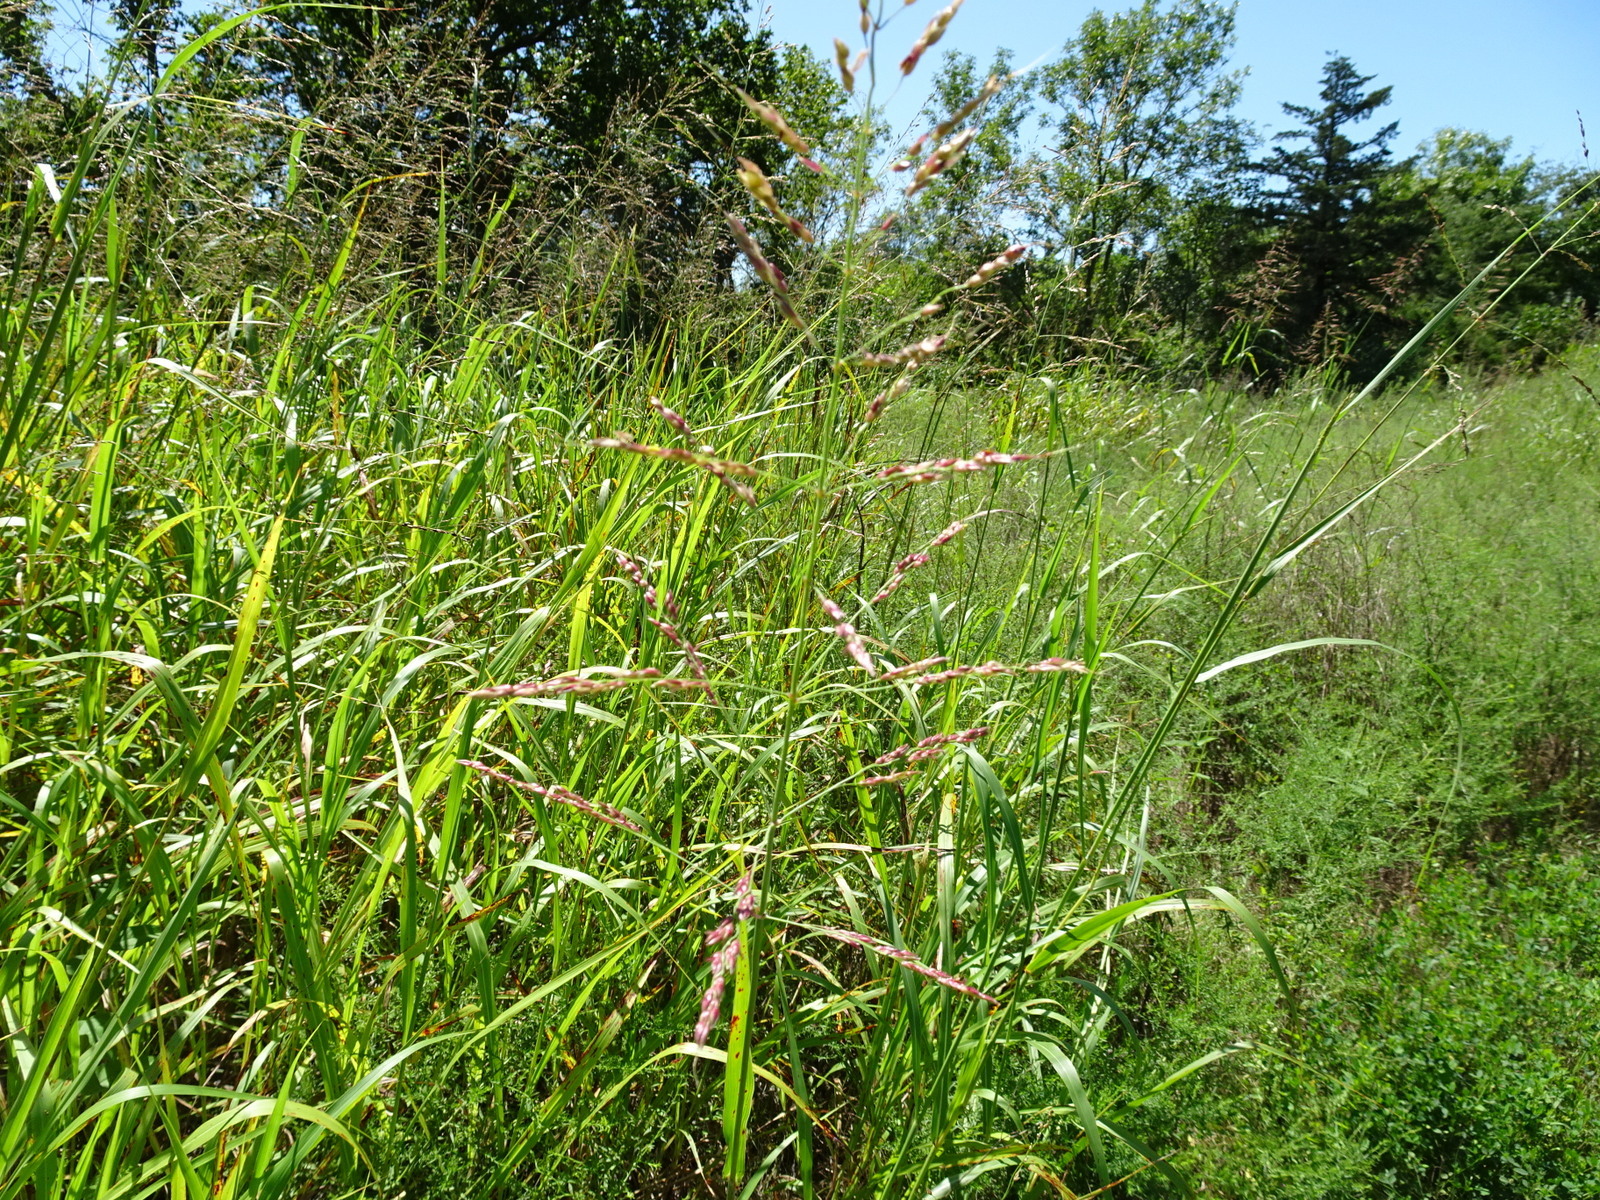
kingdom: Plantae
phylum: Tracheophyta
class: Liliopsida
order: Poales
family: Poaceae
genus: Sorghum
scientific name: Sorghum halepense
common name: Johnson-grass
